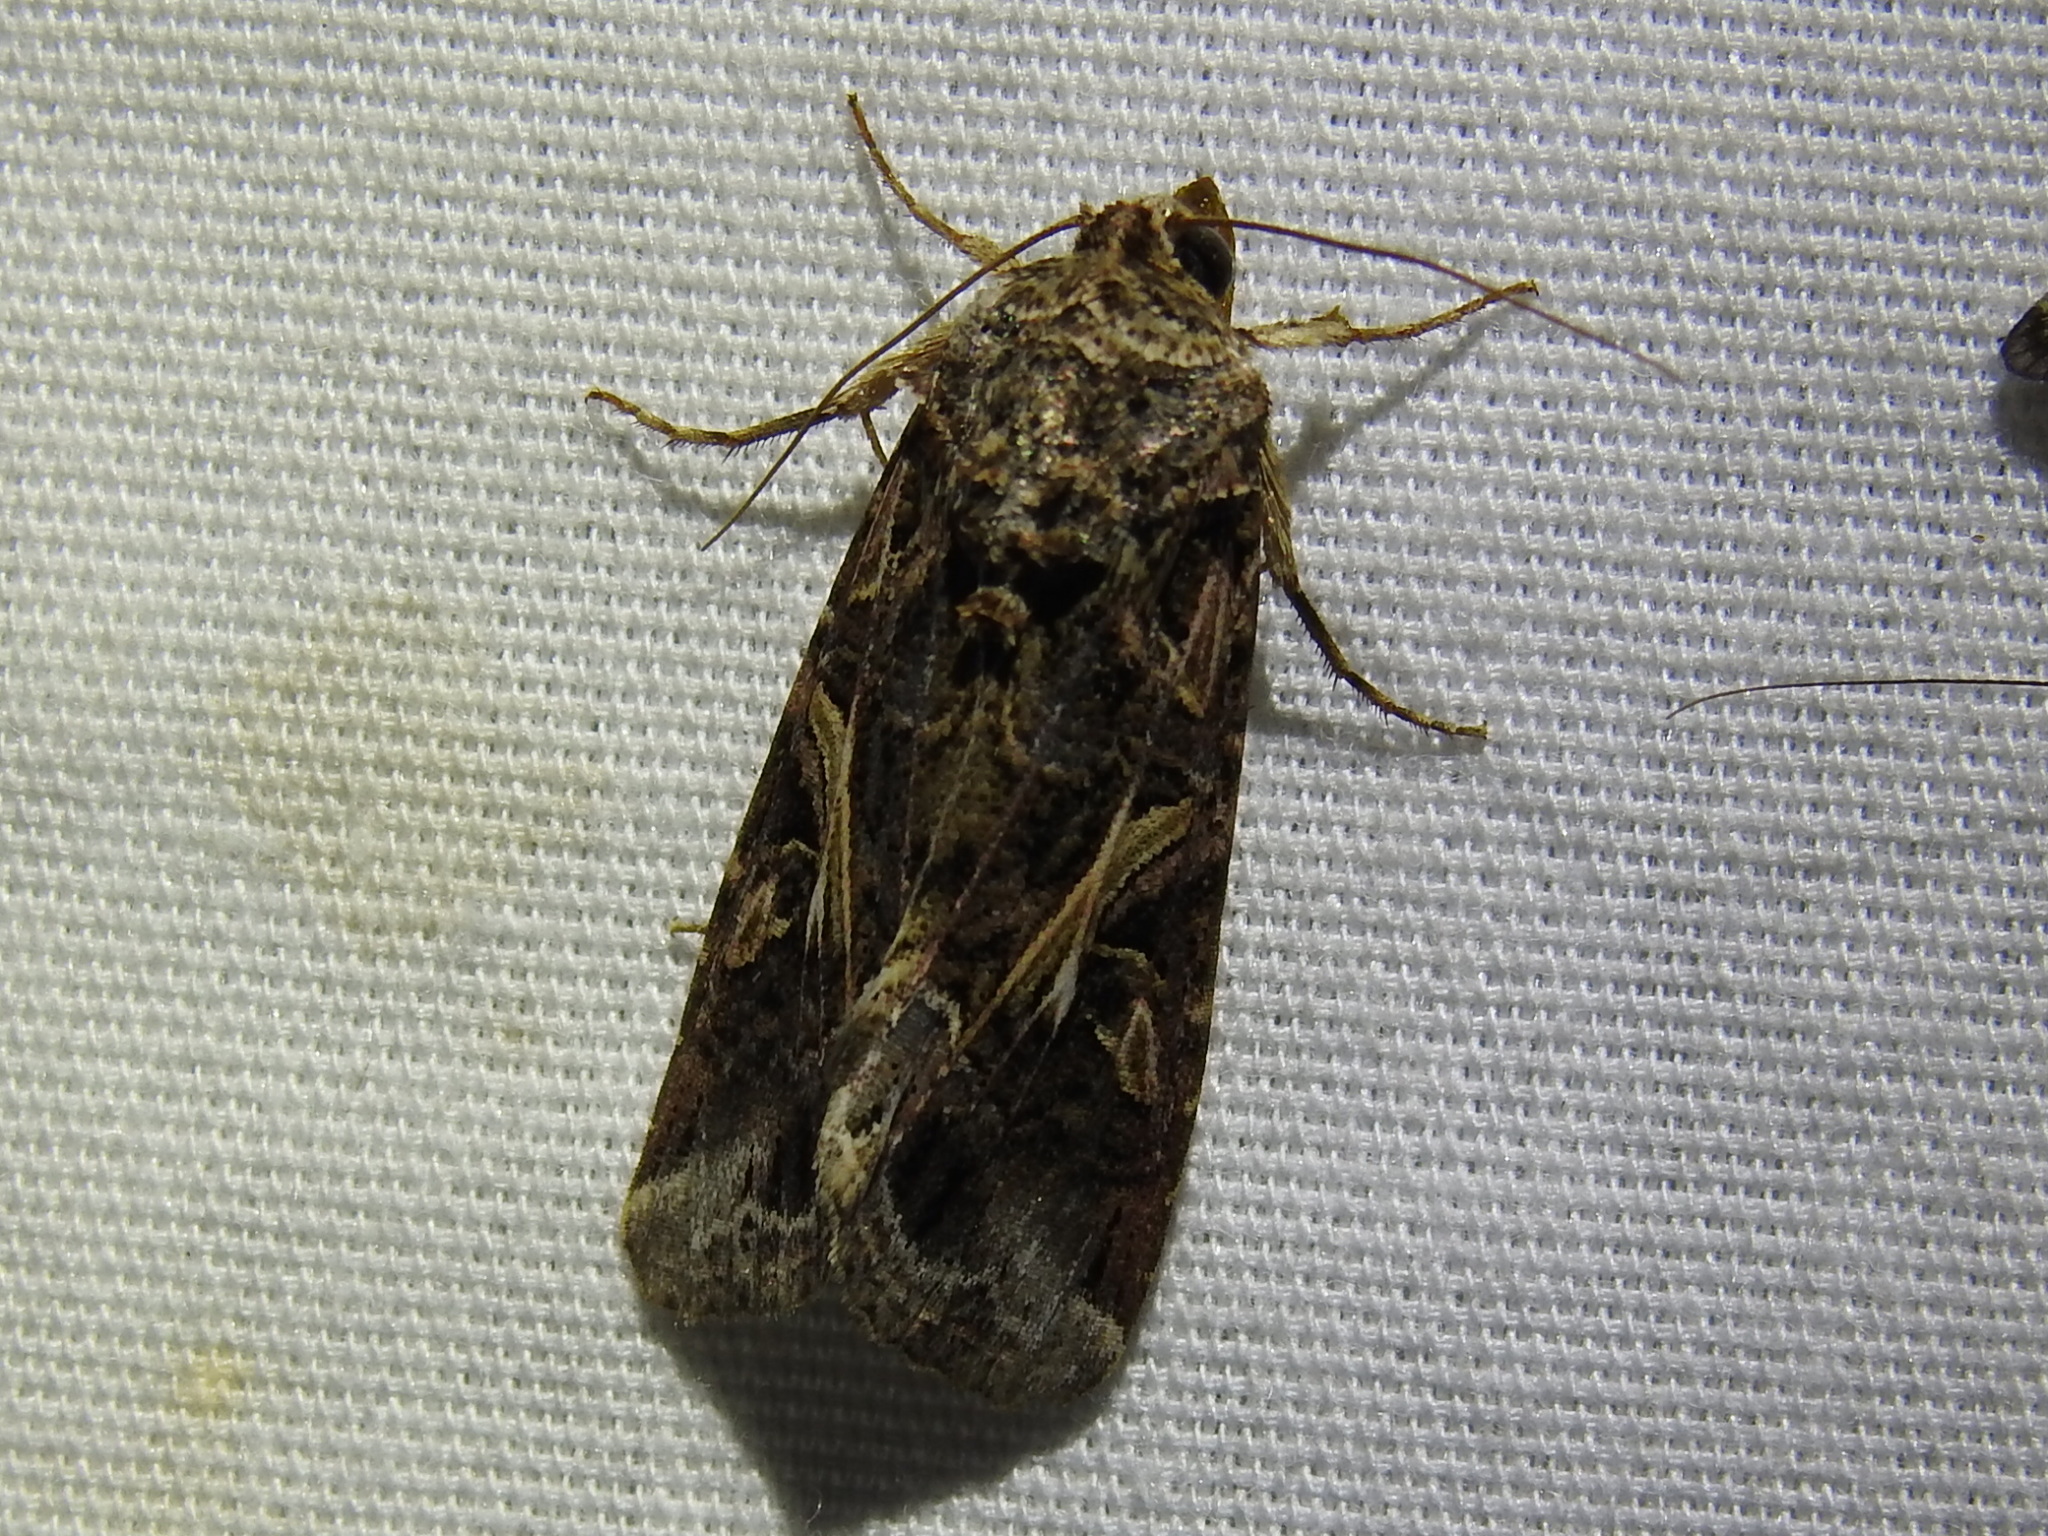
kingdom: Animalia
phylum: Arthropoda
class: Insecta
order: Lepidoptera
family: Noctuidae
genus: Spodoptera
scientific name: Spodoptera ornithogalli
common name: Yellow-striped armyworm
